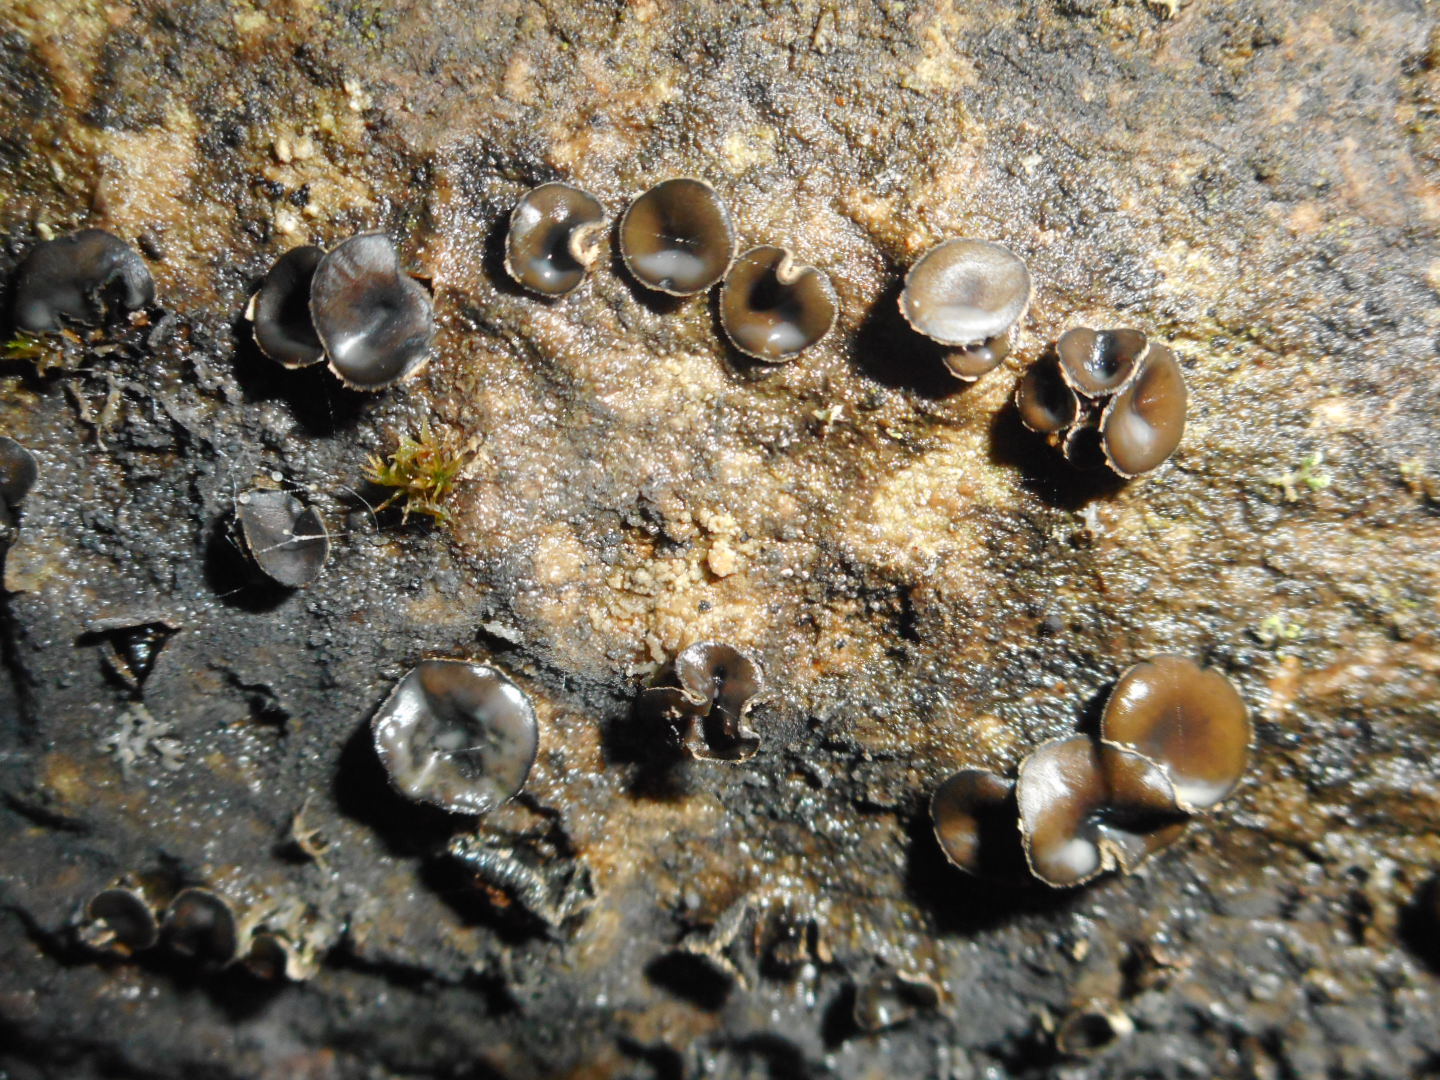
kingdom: Fungi
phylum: Ascomycota
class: Leotiomycetes
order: Helotiales
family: Sclerotiniaceae
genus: Sclerencoelia
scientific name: Sclerencoelia fraxinicola
